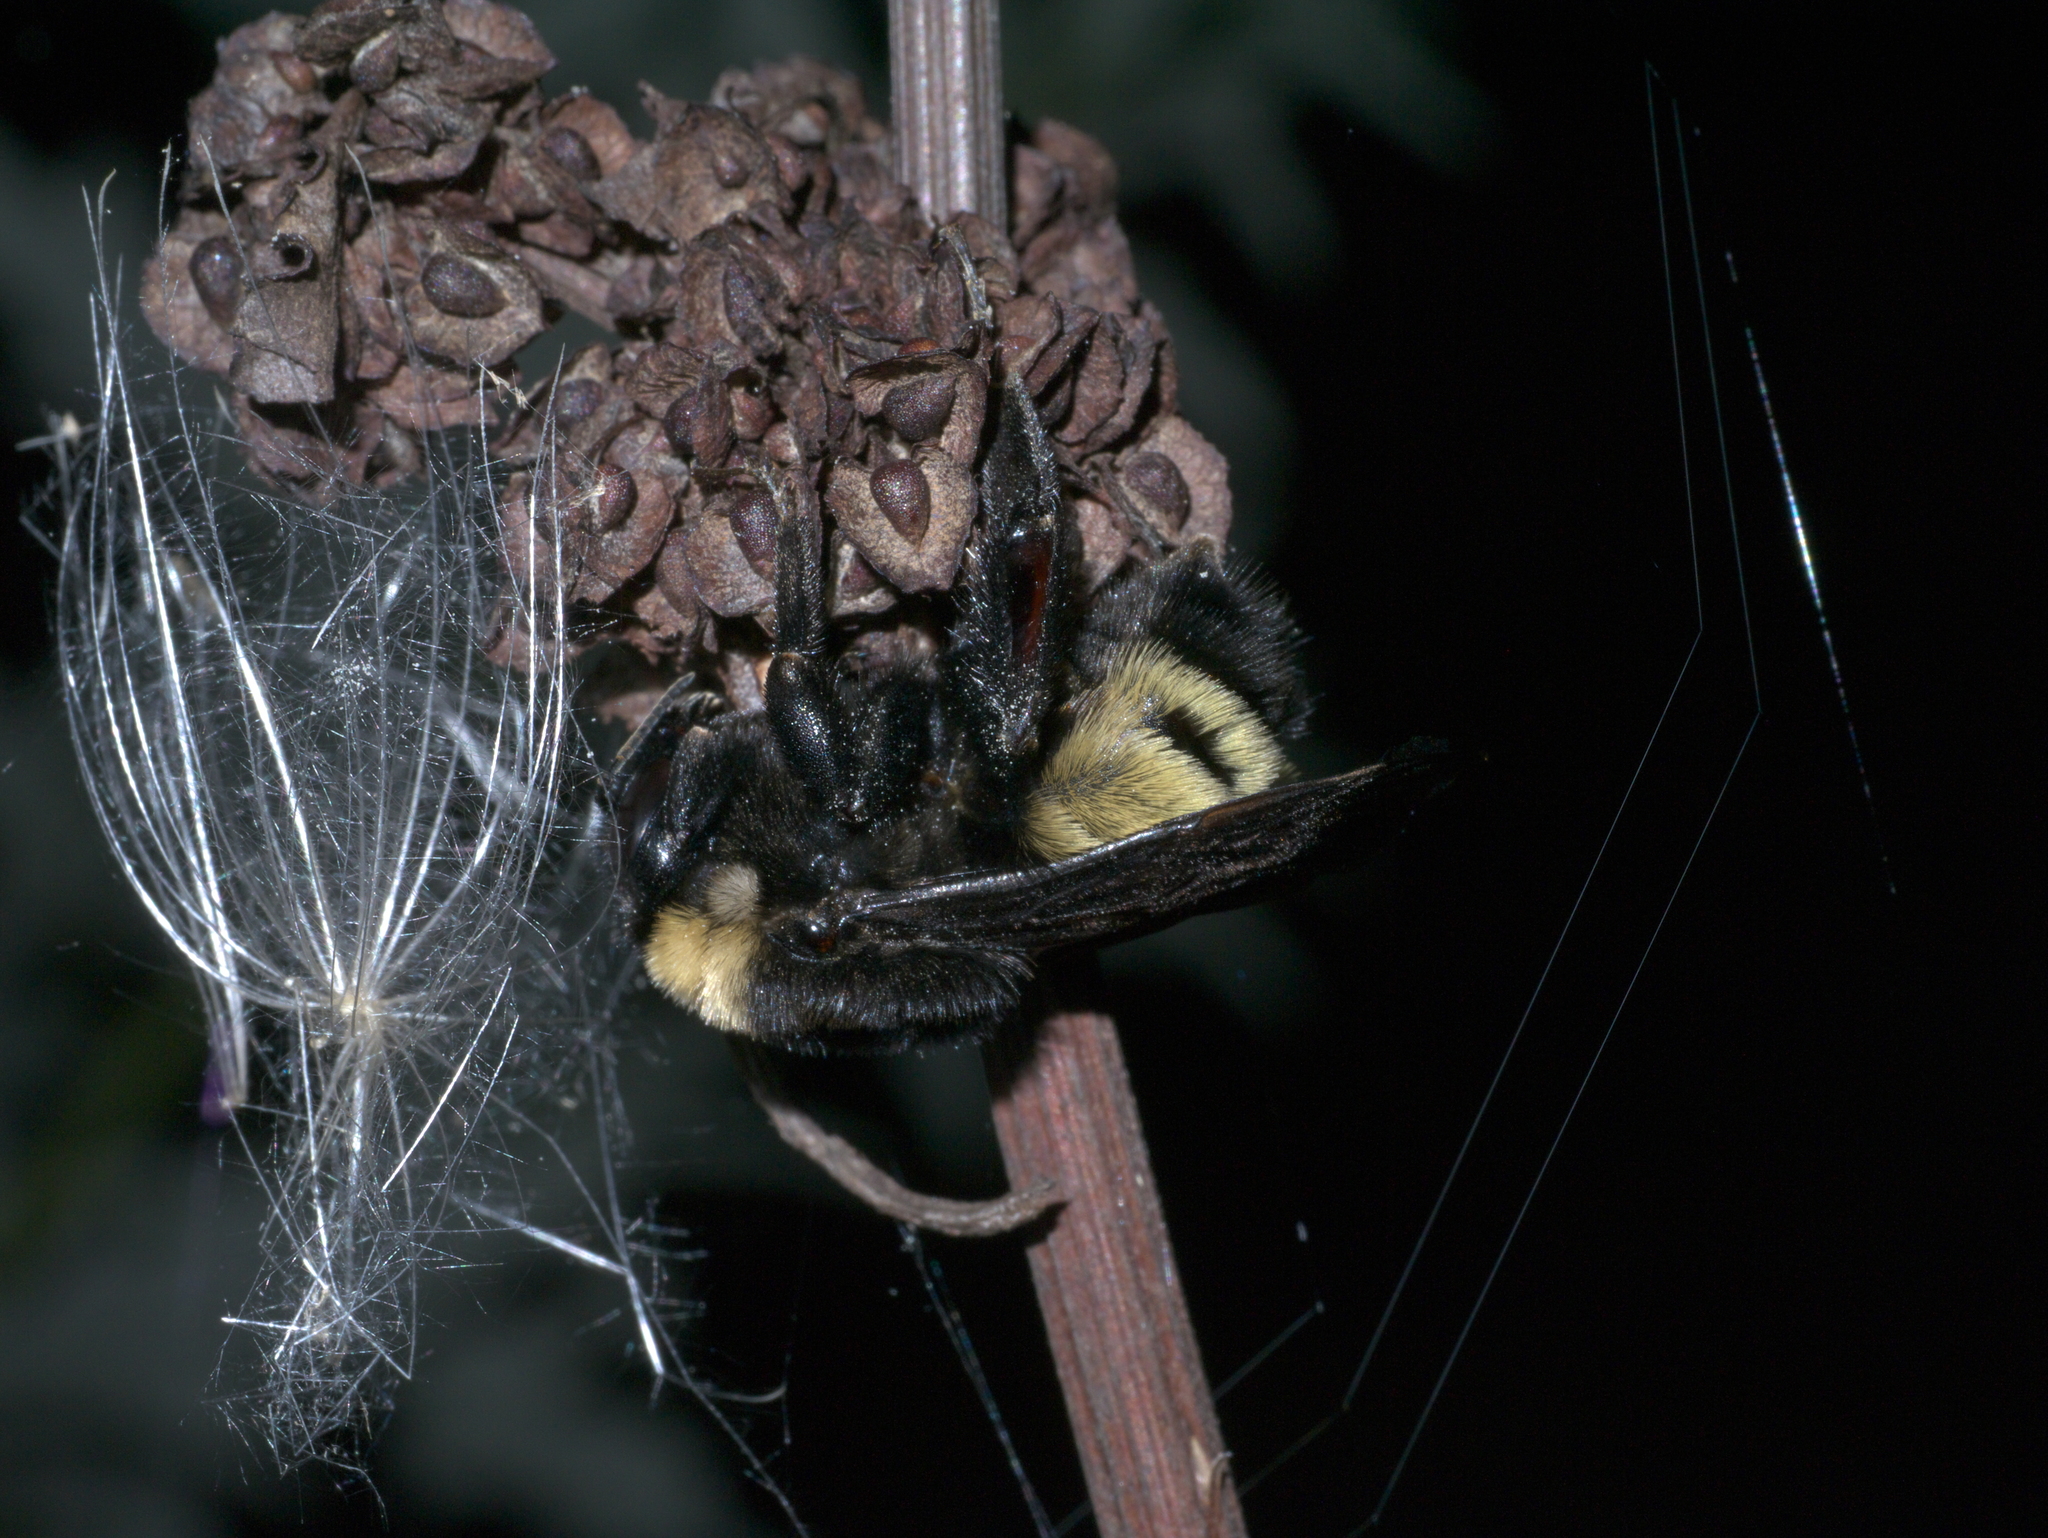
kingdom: Animalia
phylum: Arthropoda
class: Insecta
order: Hymenoptera
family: Apidae
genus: Bombus
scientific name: Bombus pensylvanicus
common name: Bumble bee
